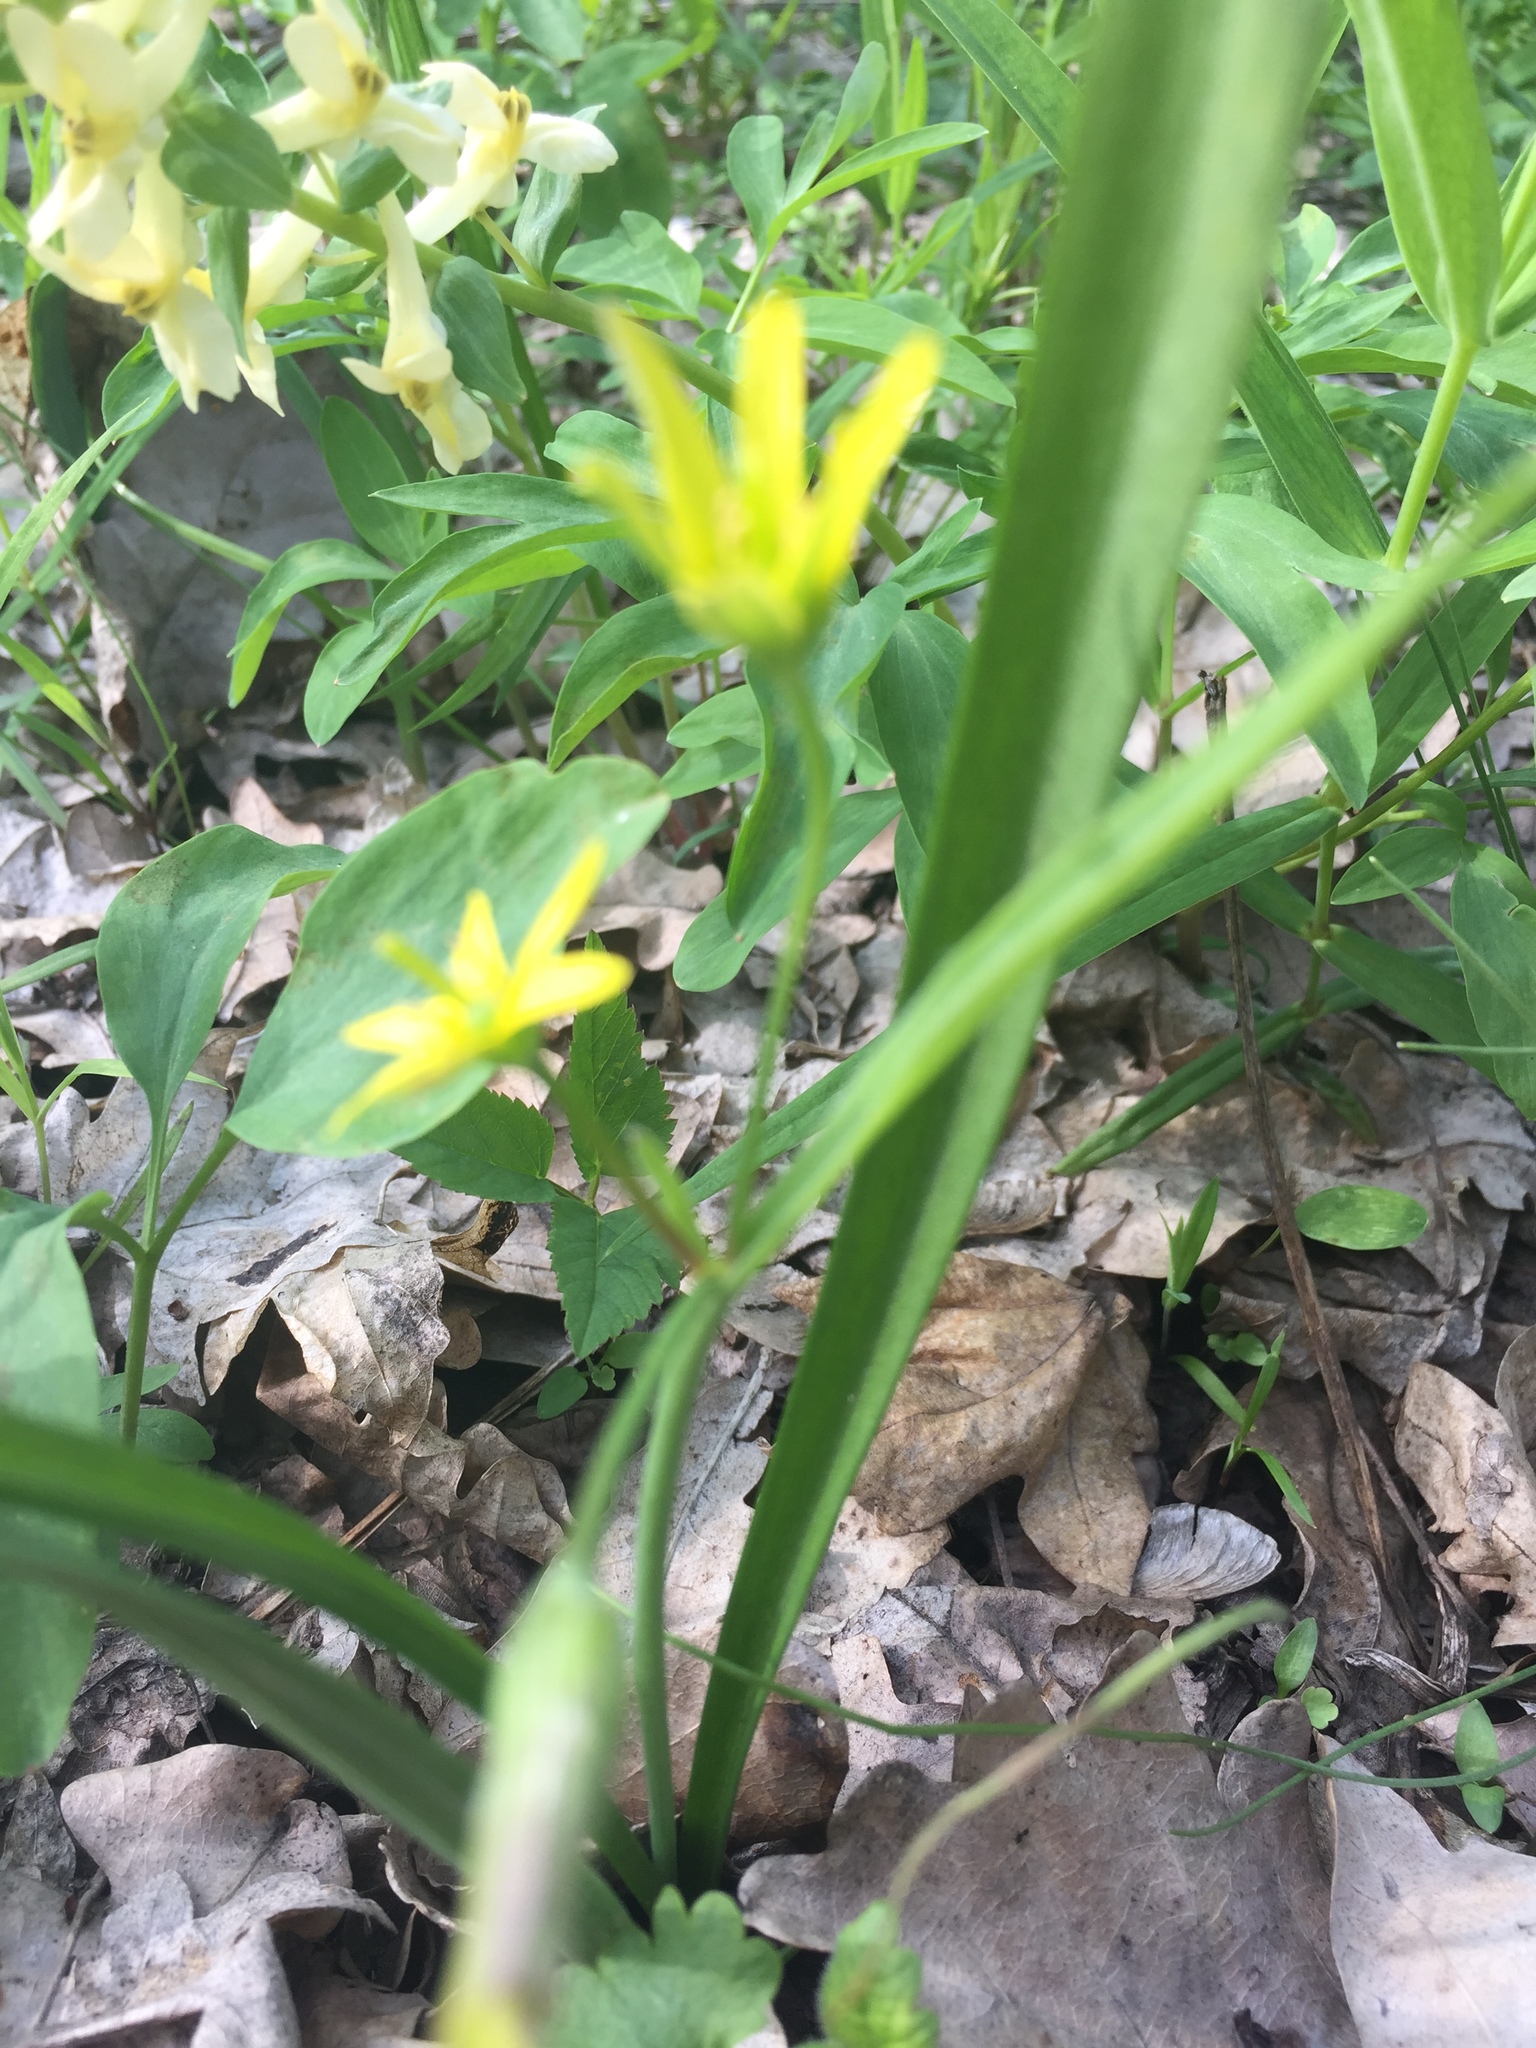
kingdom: Plantae
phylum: Tracheophyta
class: Liliopsida
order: Liliales
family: Liliaceae
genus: Gagea
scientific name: Gagea lutea
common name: Yellow star-of-bethlehem
